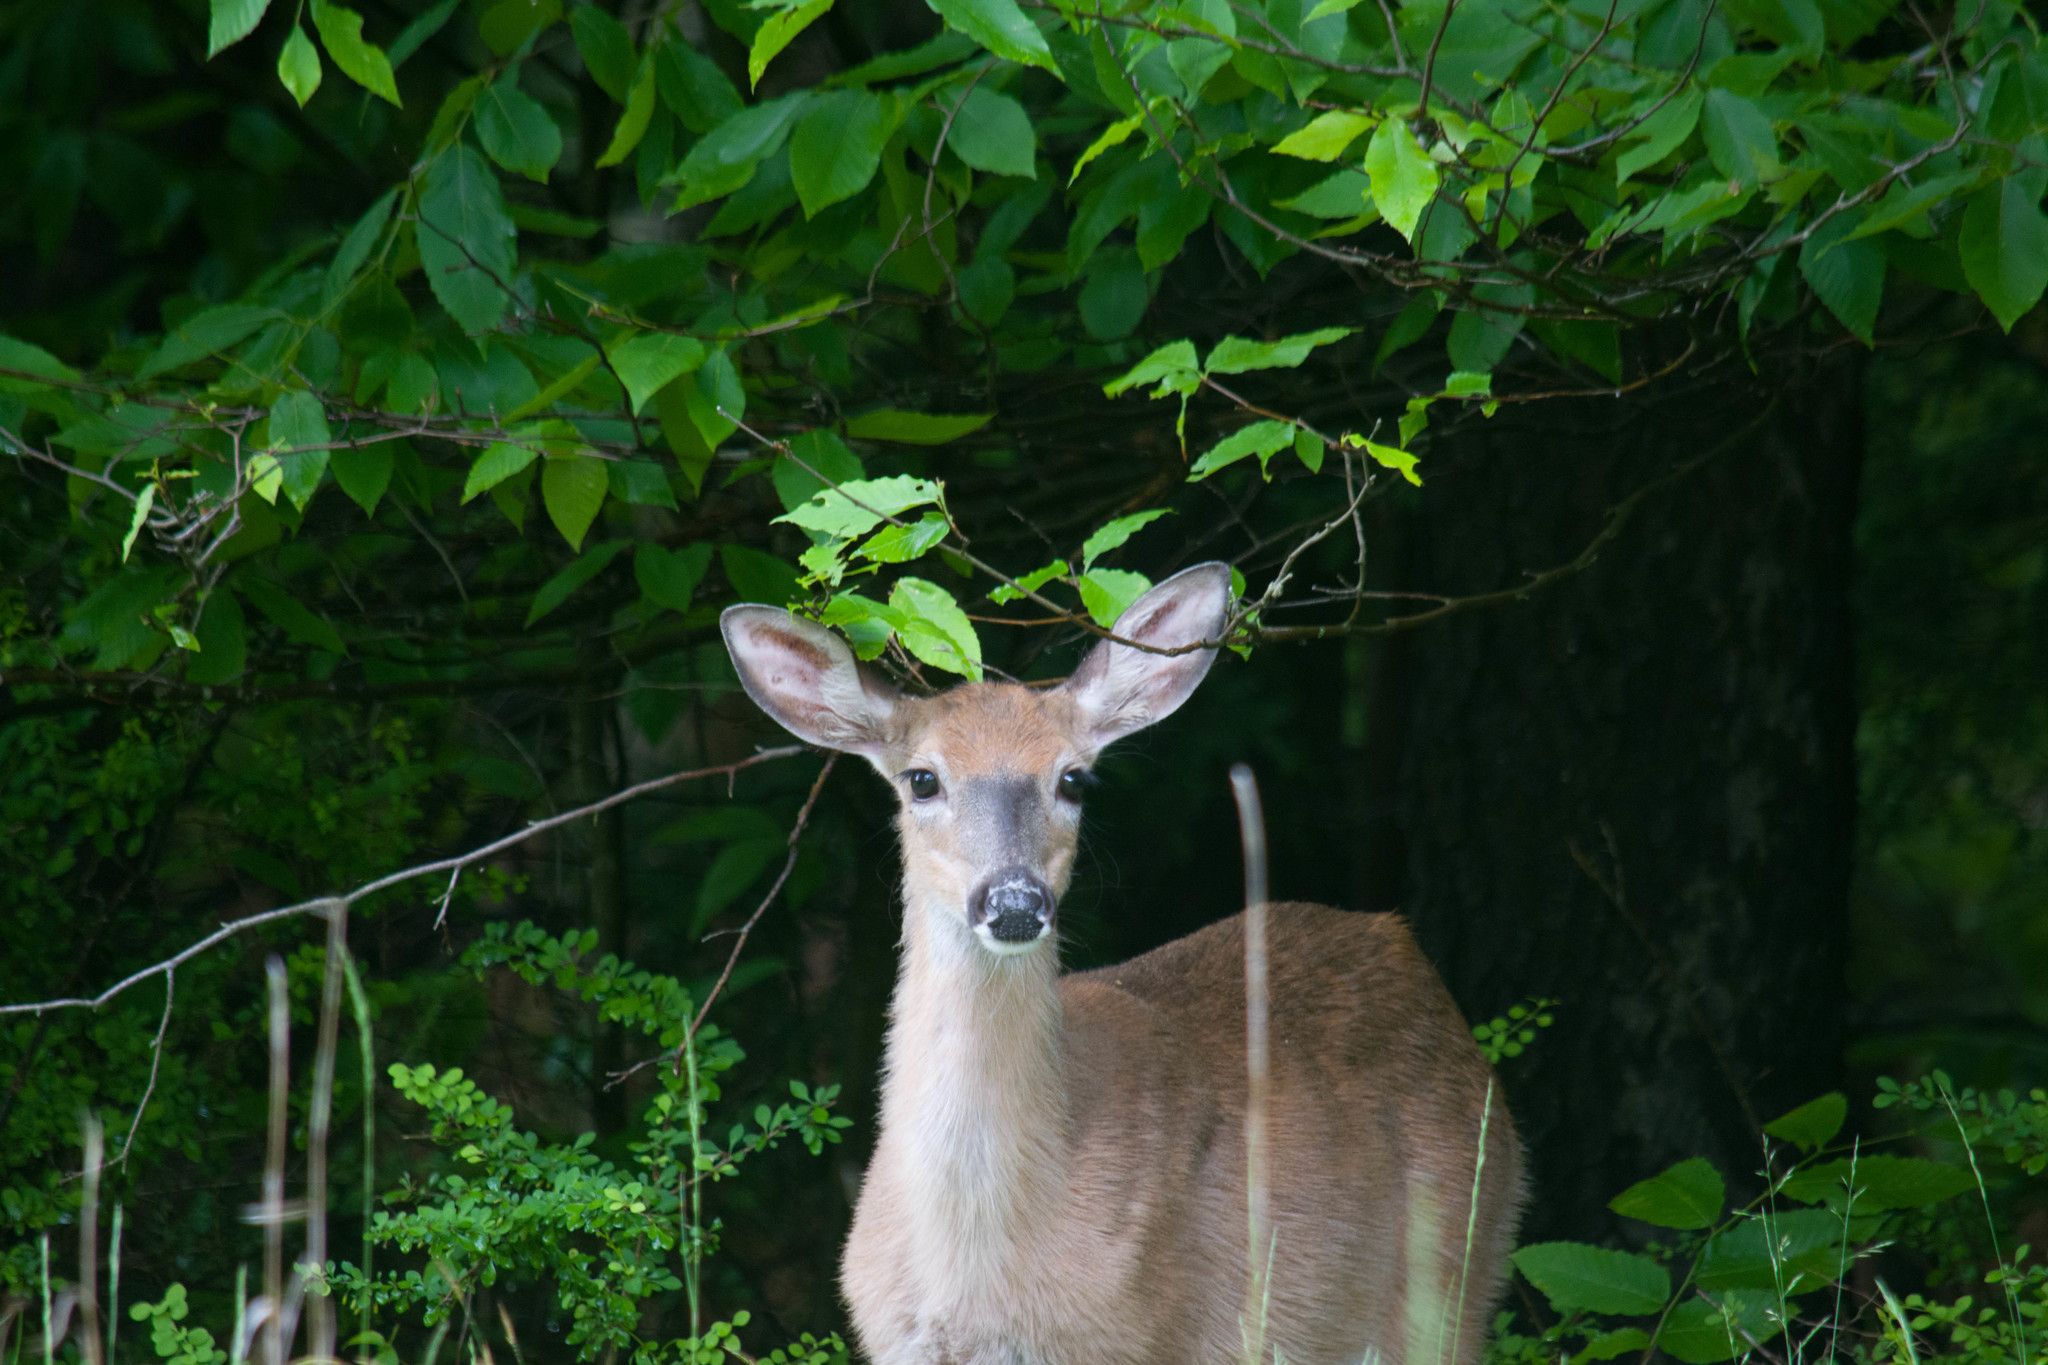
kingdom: Animalia
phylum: Chordata
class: Mammalia
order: Artiodactyla
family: Cervidae
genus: Odocoileus
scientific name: Odocoileus virginianus
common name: White-tailed deer
